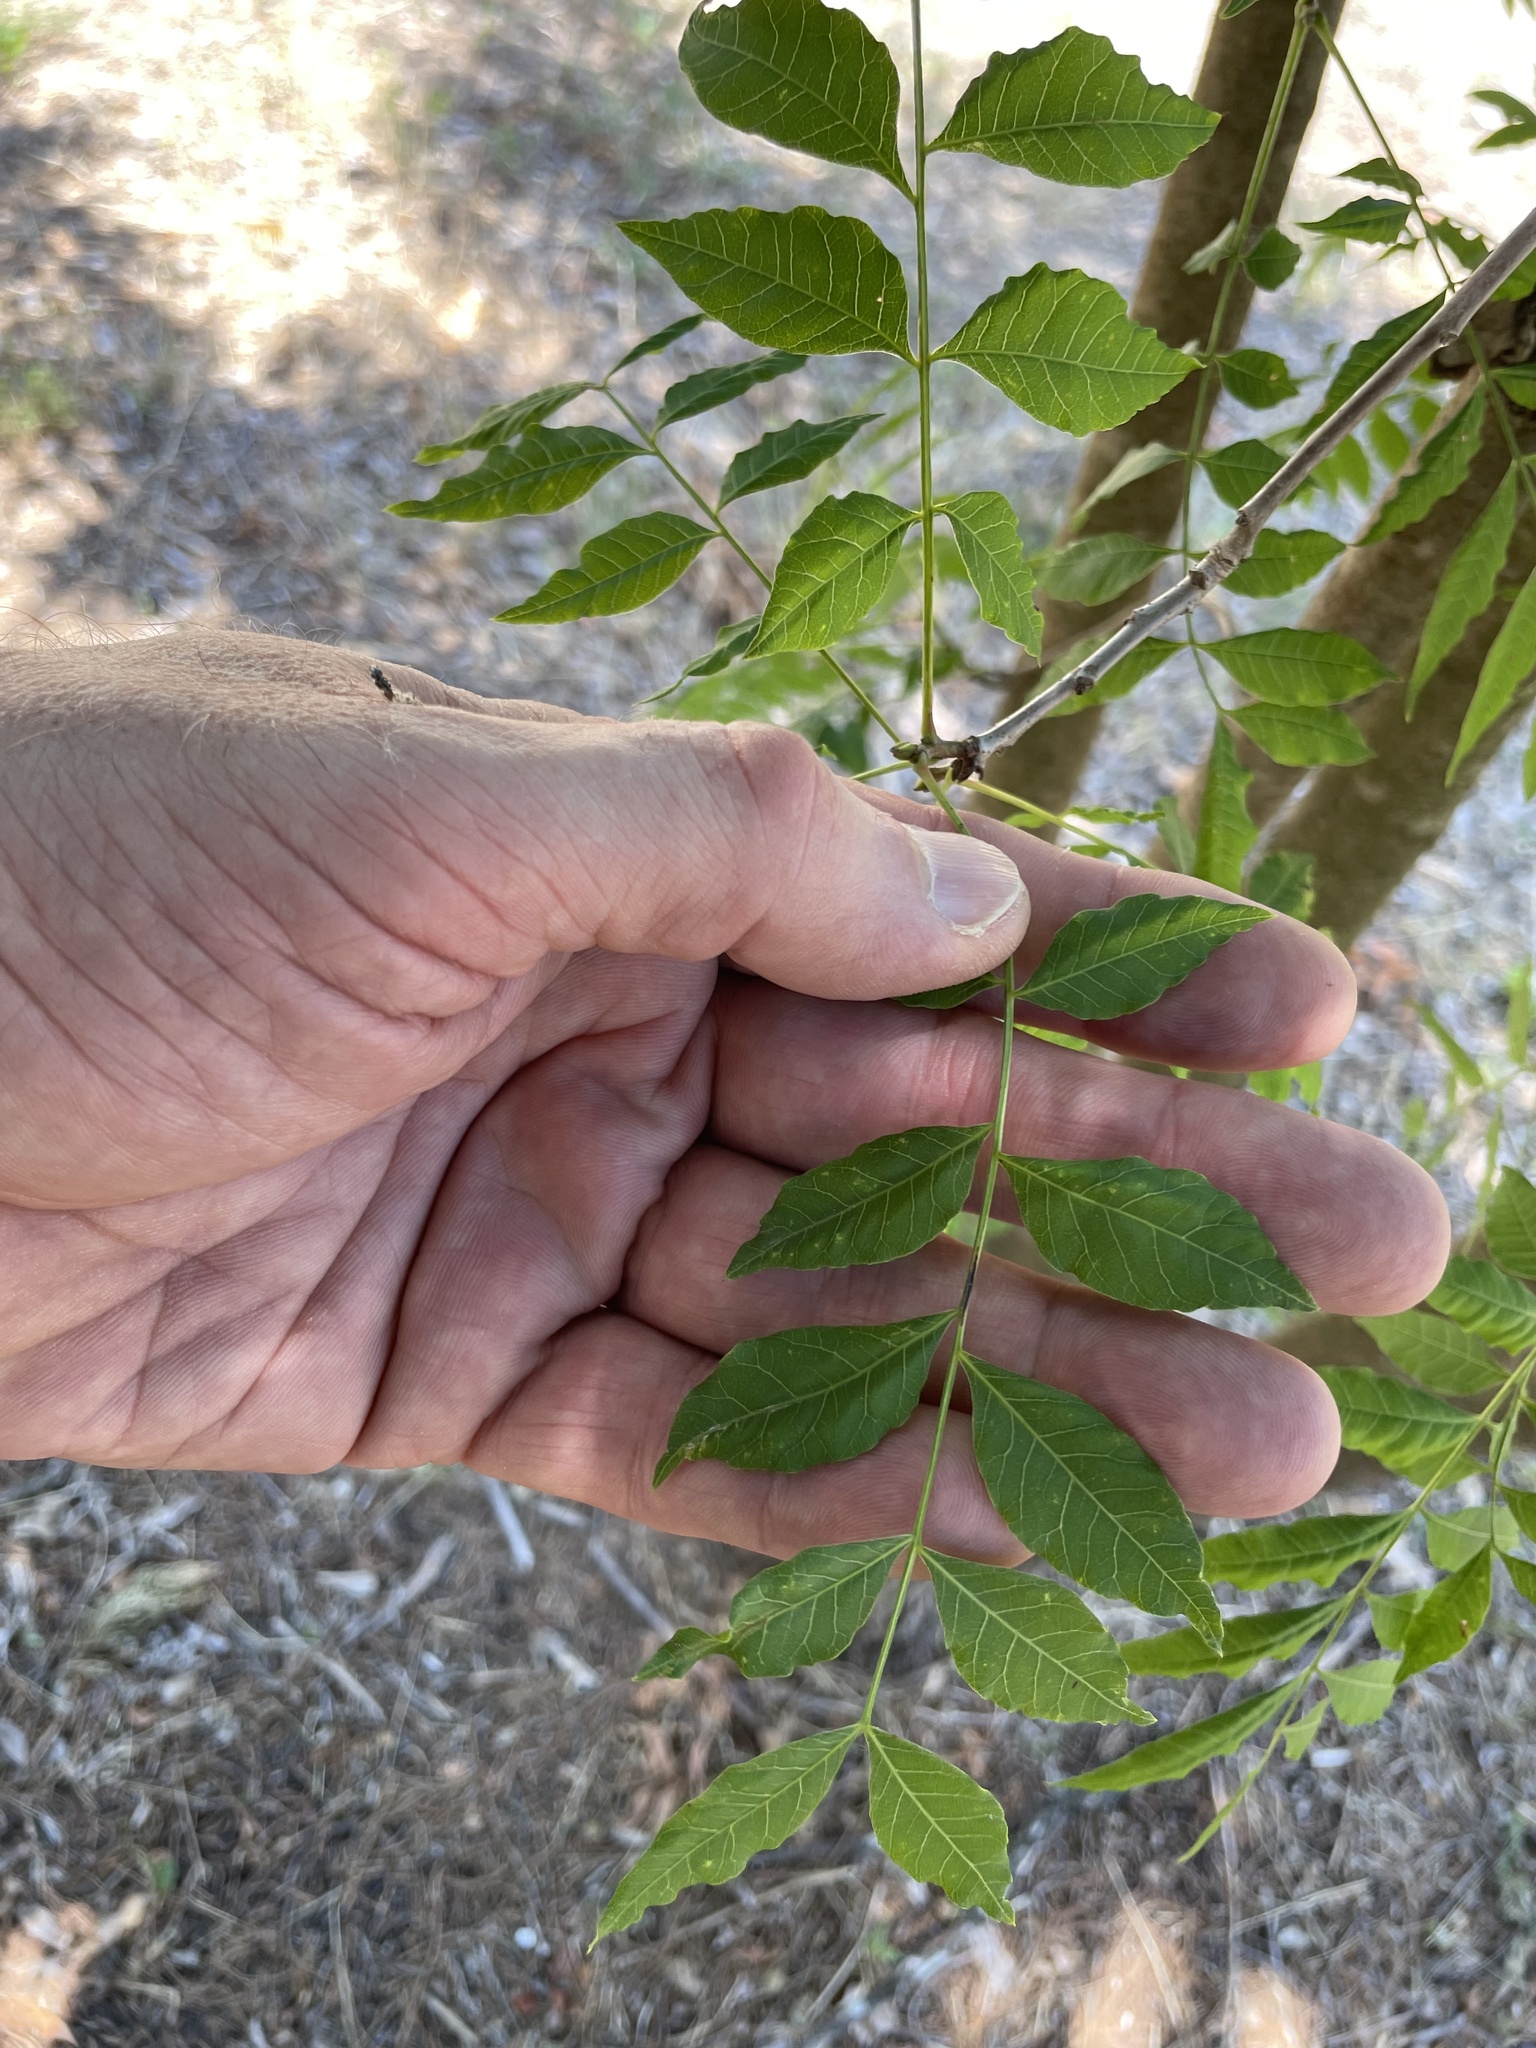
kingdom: Plantae
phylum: Tracheophyta
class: Magnoliopsida
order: Sapindales
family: Anacardiaceae
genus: Pistacia
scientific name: Pistacia chinensis
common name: Chinese pistache
